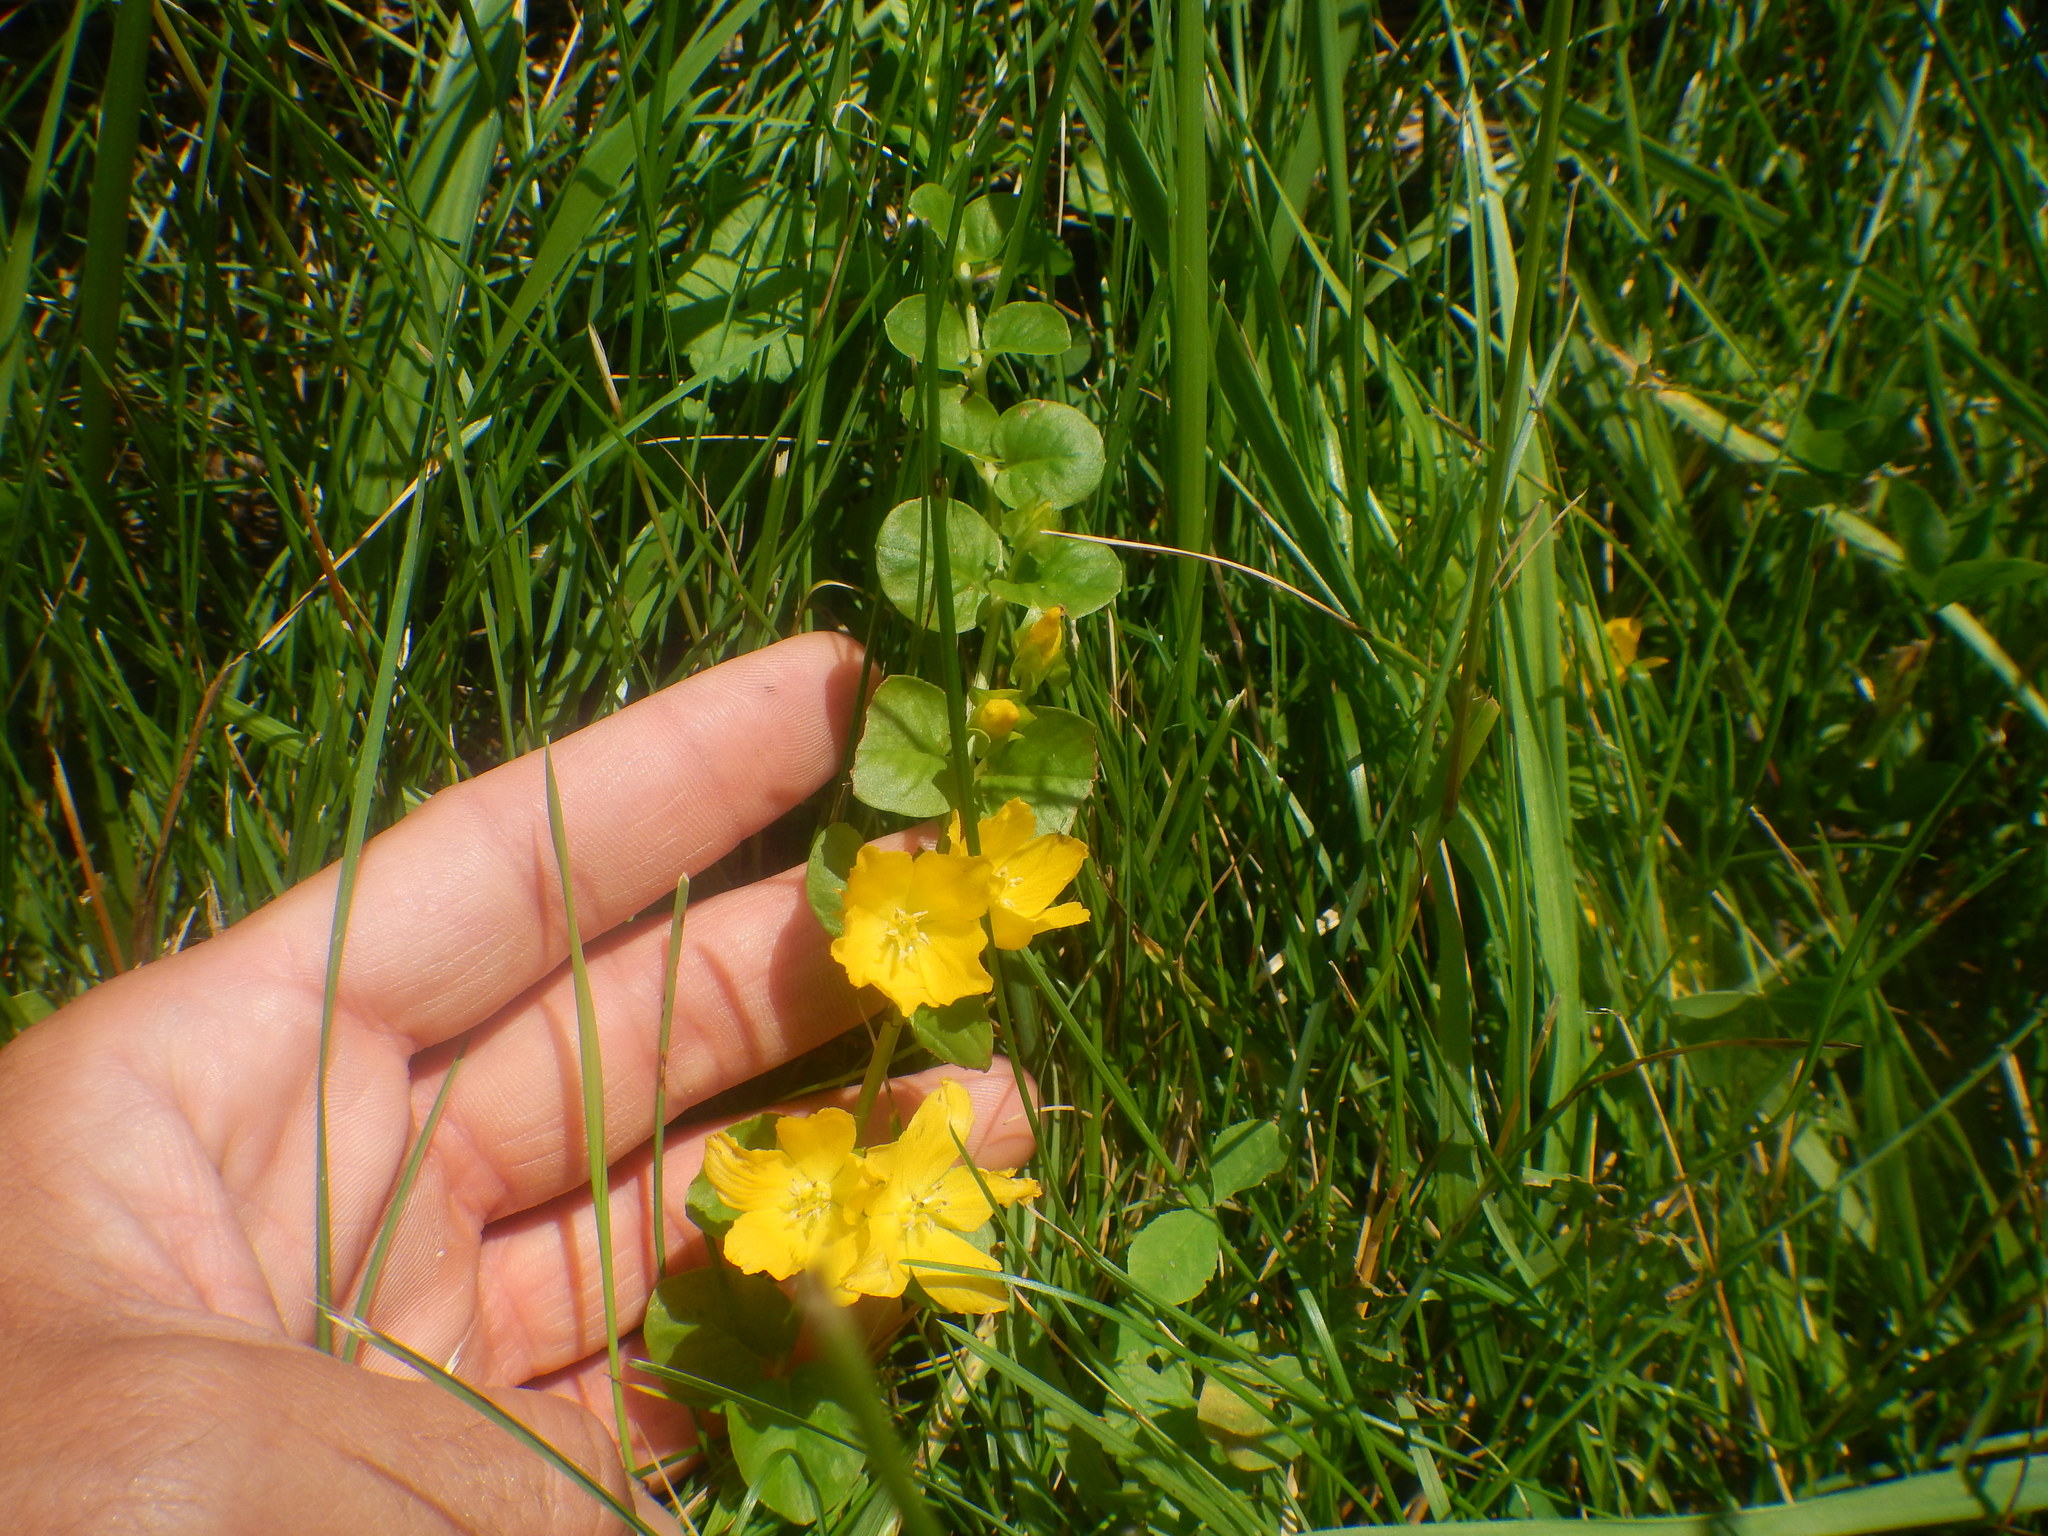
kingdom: Plantae
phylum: Tracheophyta
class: Magnoliopsida
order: Ericales
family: Primulaceae
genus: Lysimachia
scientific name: Lysimachia nummularia
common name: Moneywort
